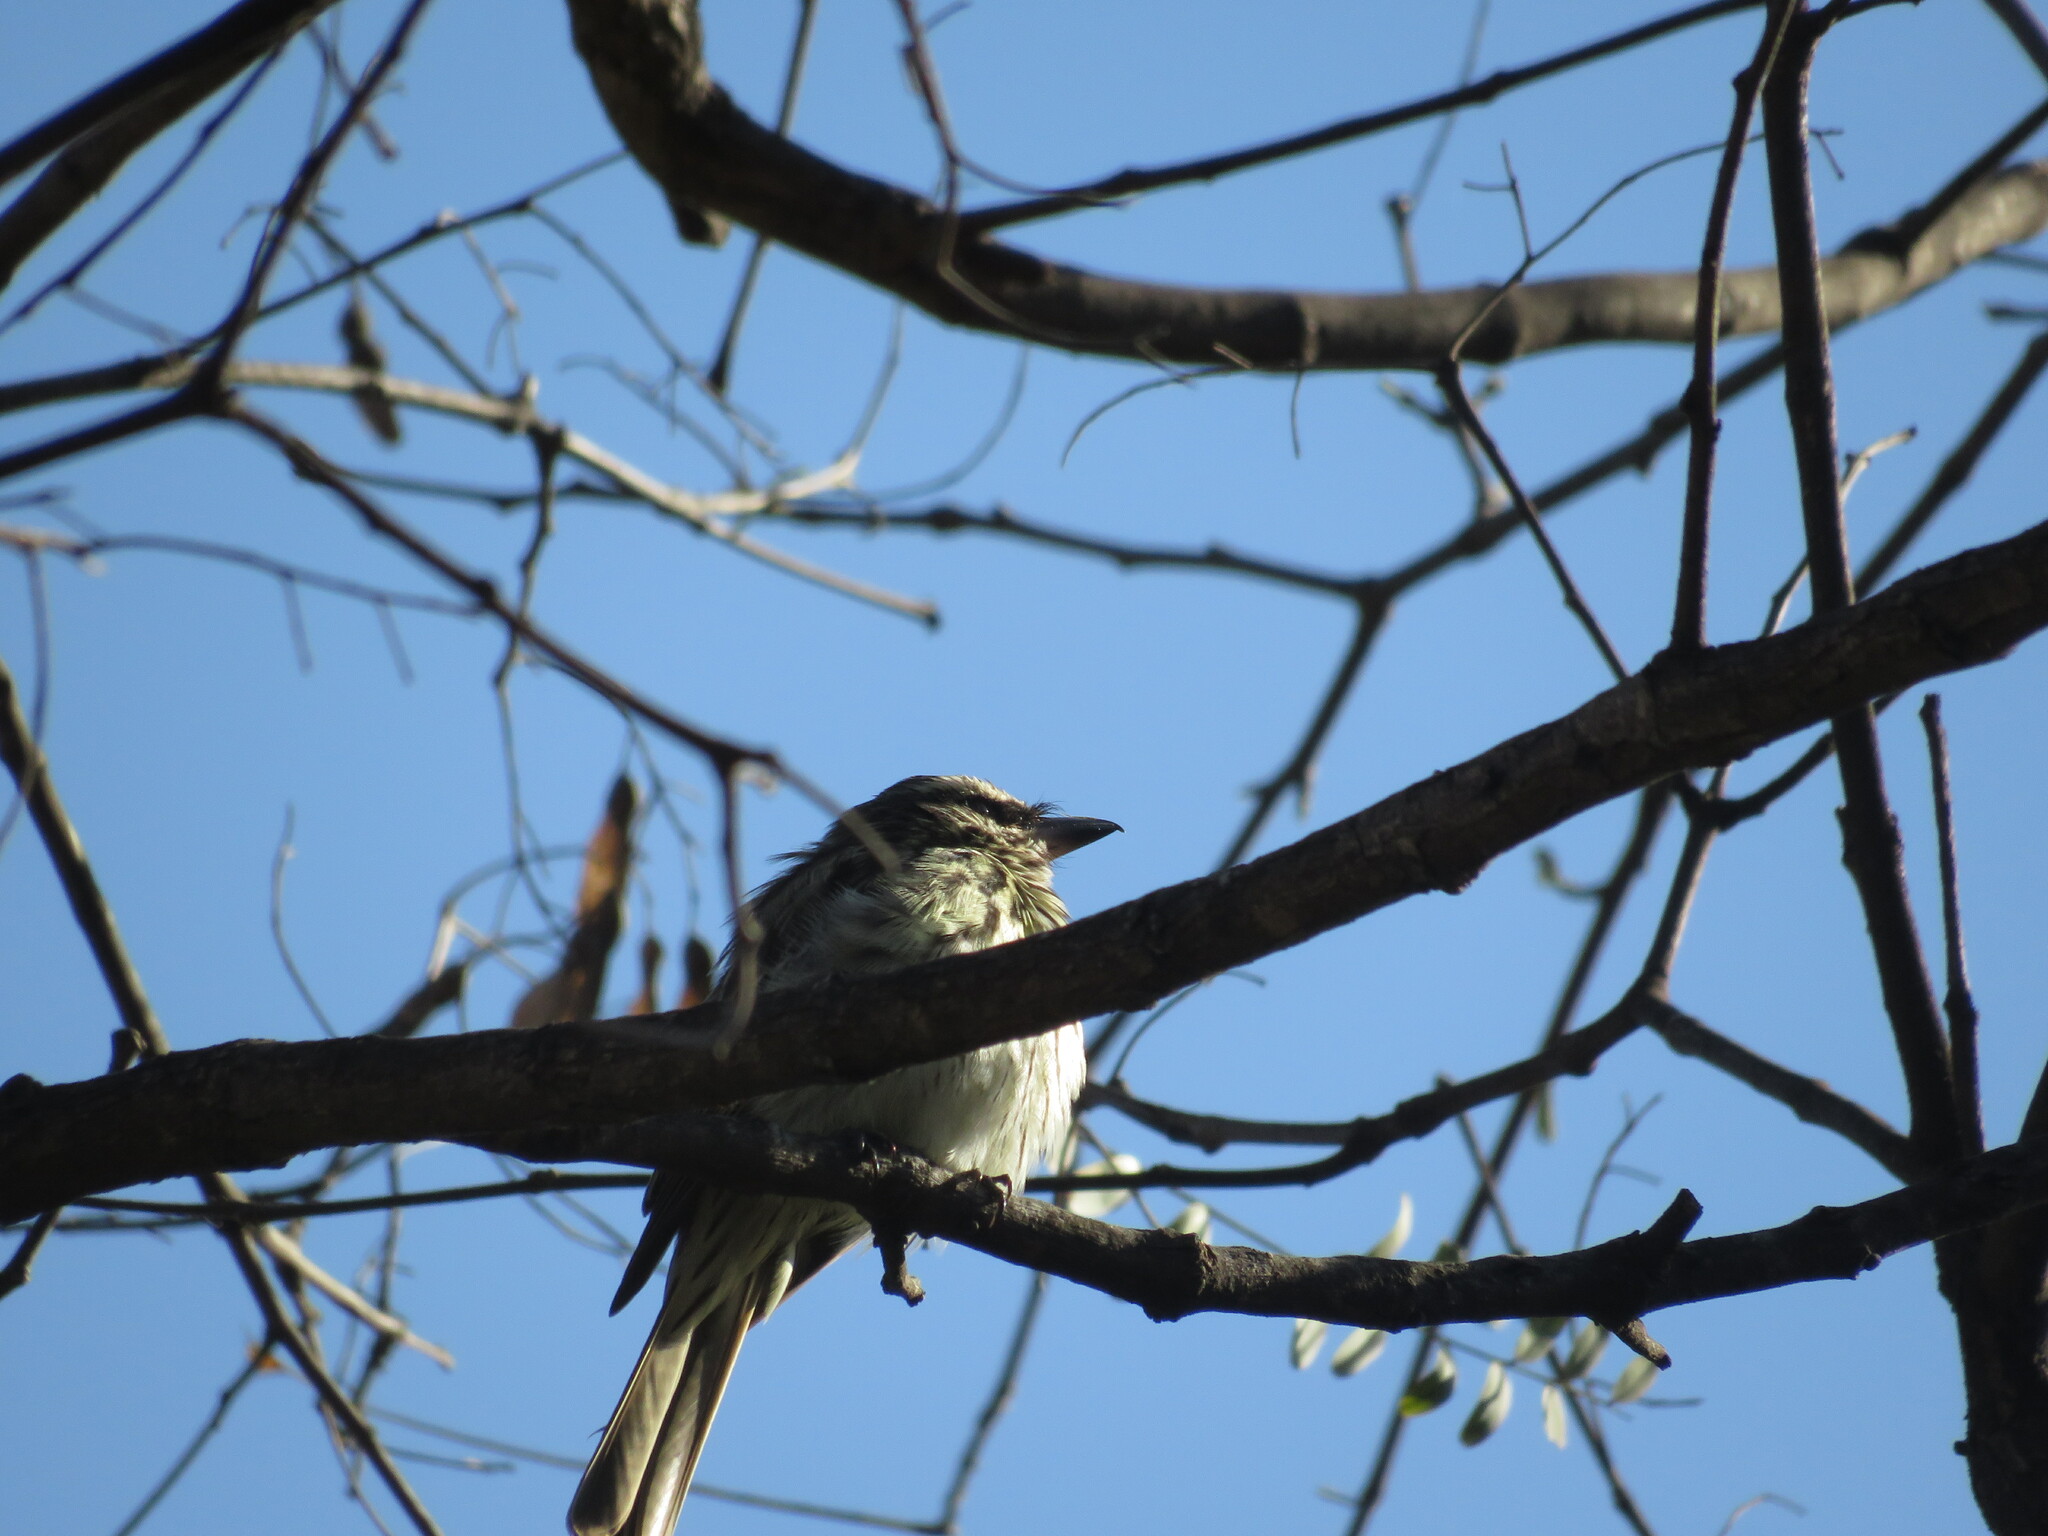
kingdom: Animalia
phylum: Chordata
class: Aves
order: Passeriformes
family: Tyrannidae
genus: Myiodynastes
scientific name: Myiodynastes maculatus
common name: Streaked flycatcher
